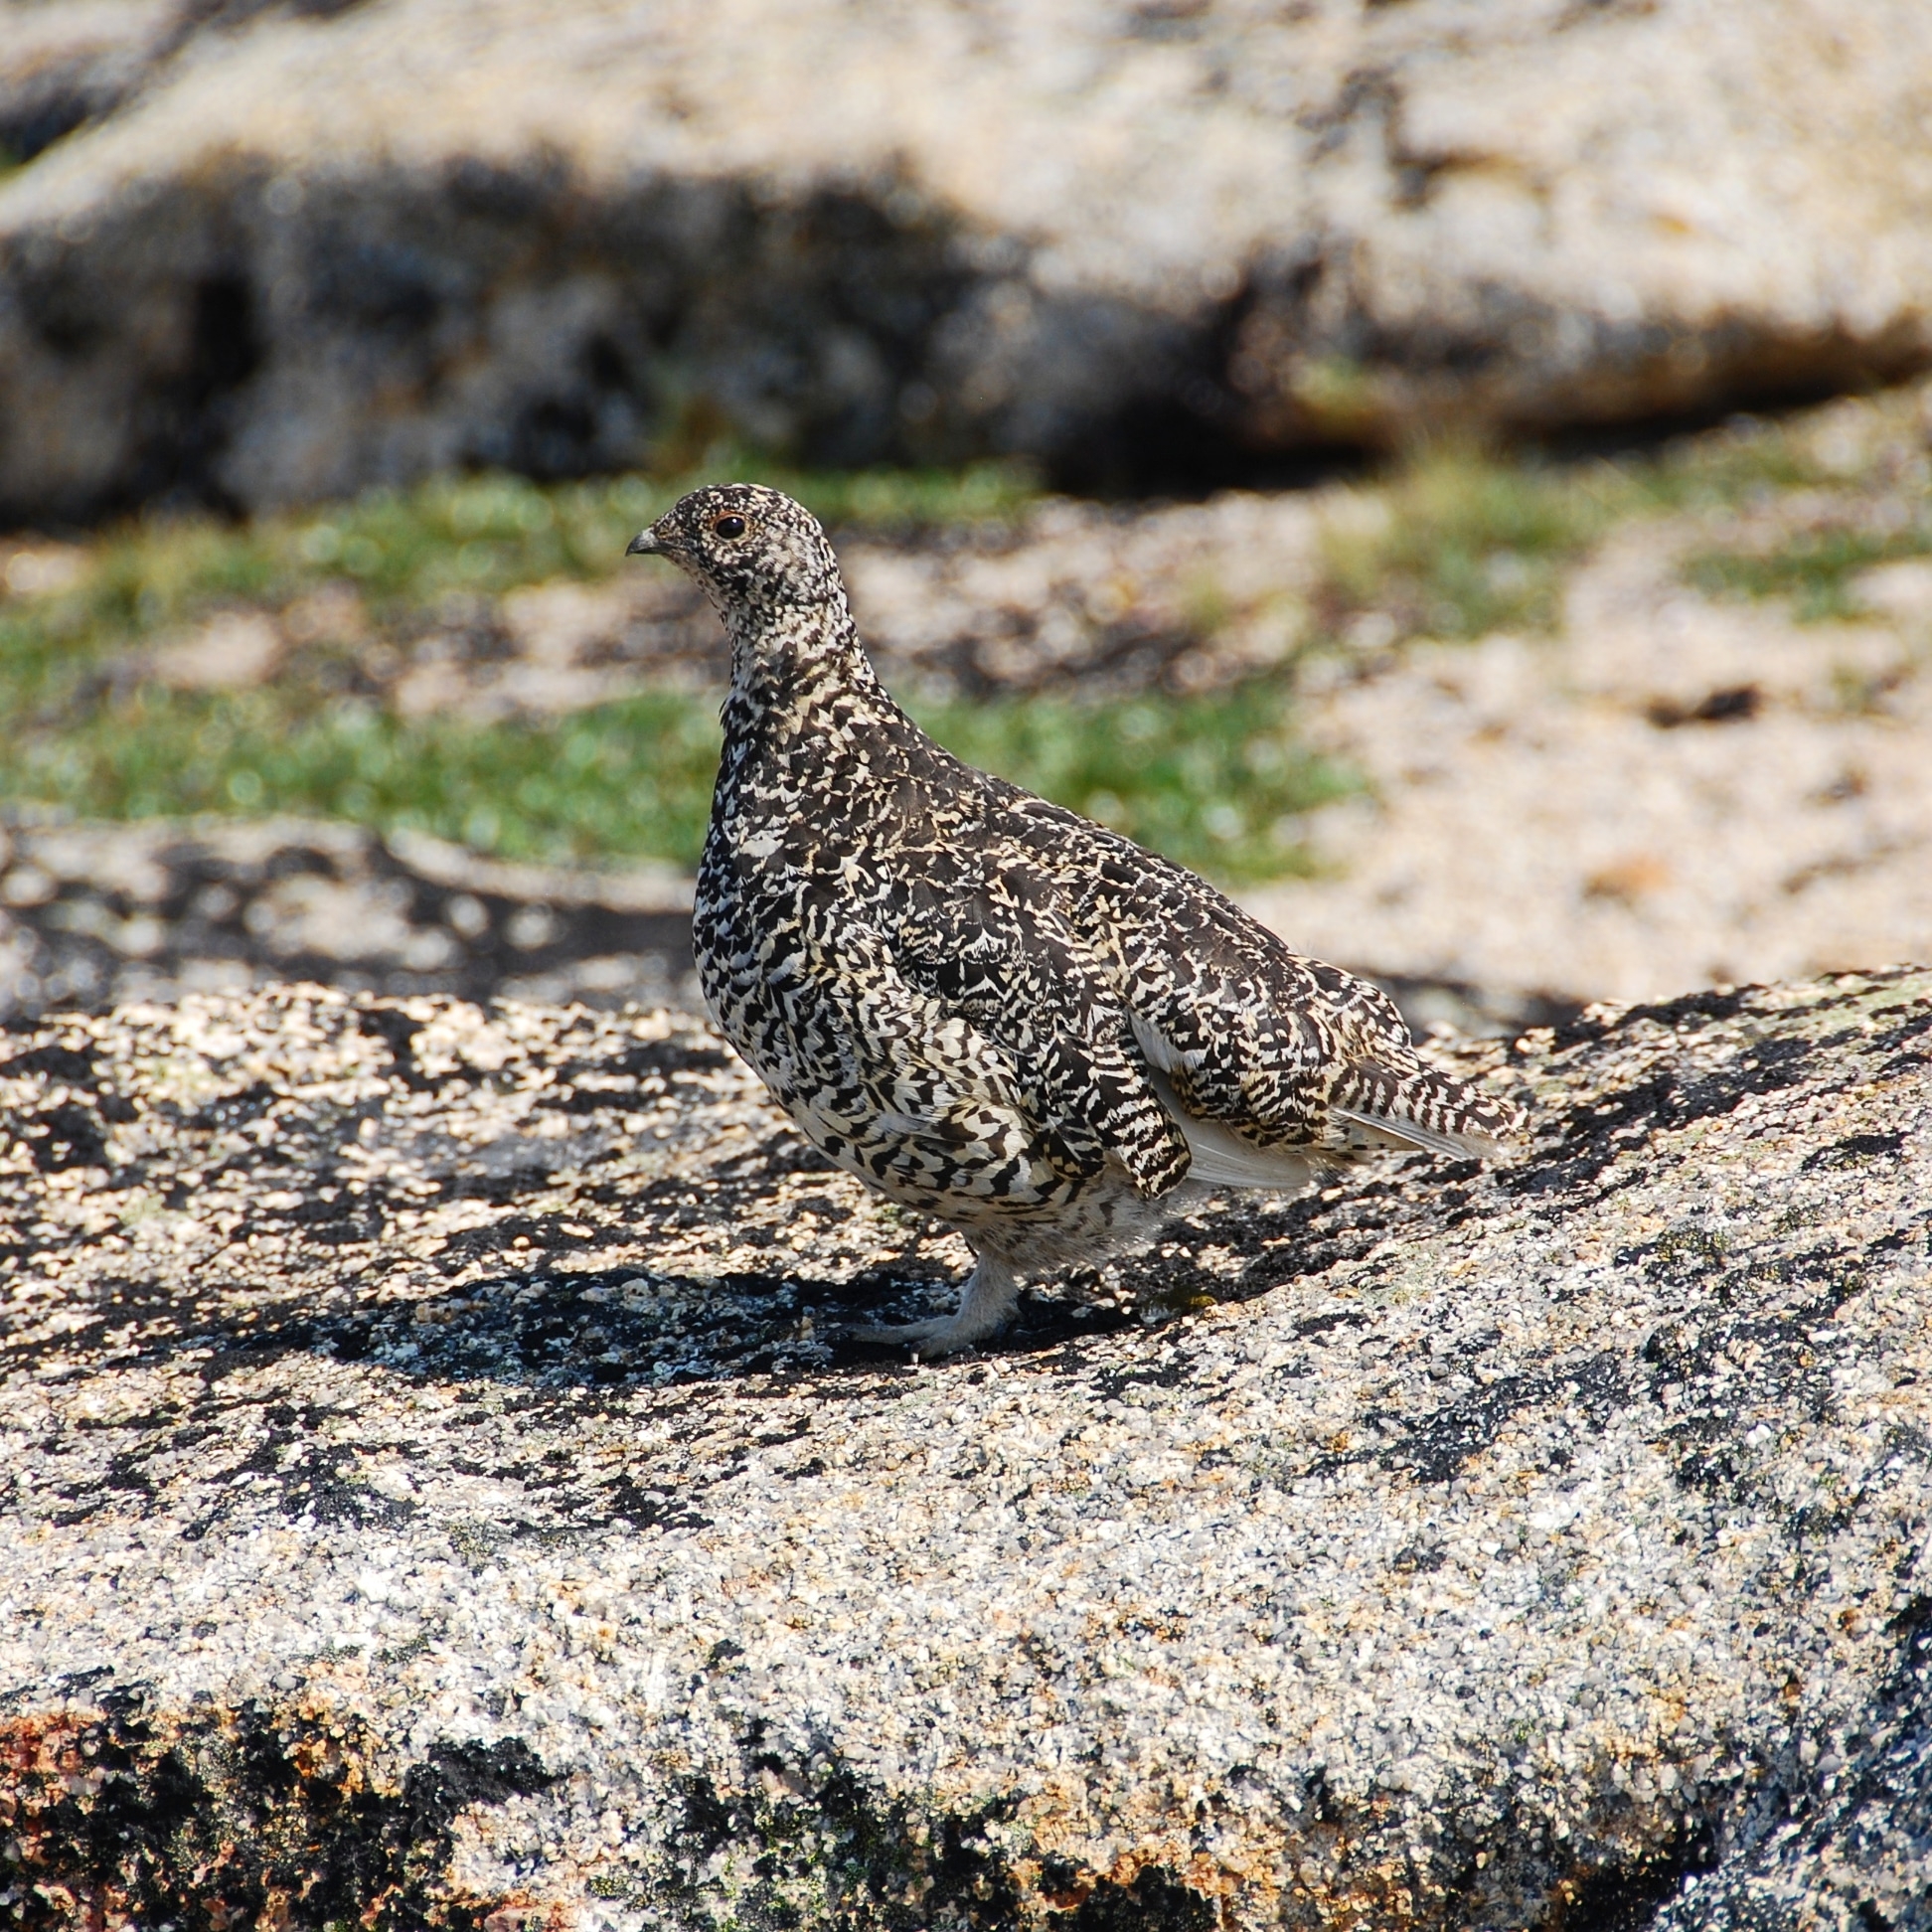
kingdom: Animalia
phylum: Chordata
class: Aves
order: Galliformes
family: Phasianidae
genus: Lagopus
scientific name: Lagopus leucura
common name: White-tailed ptarmigan
